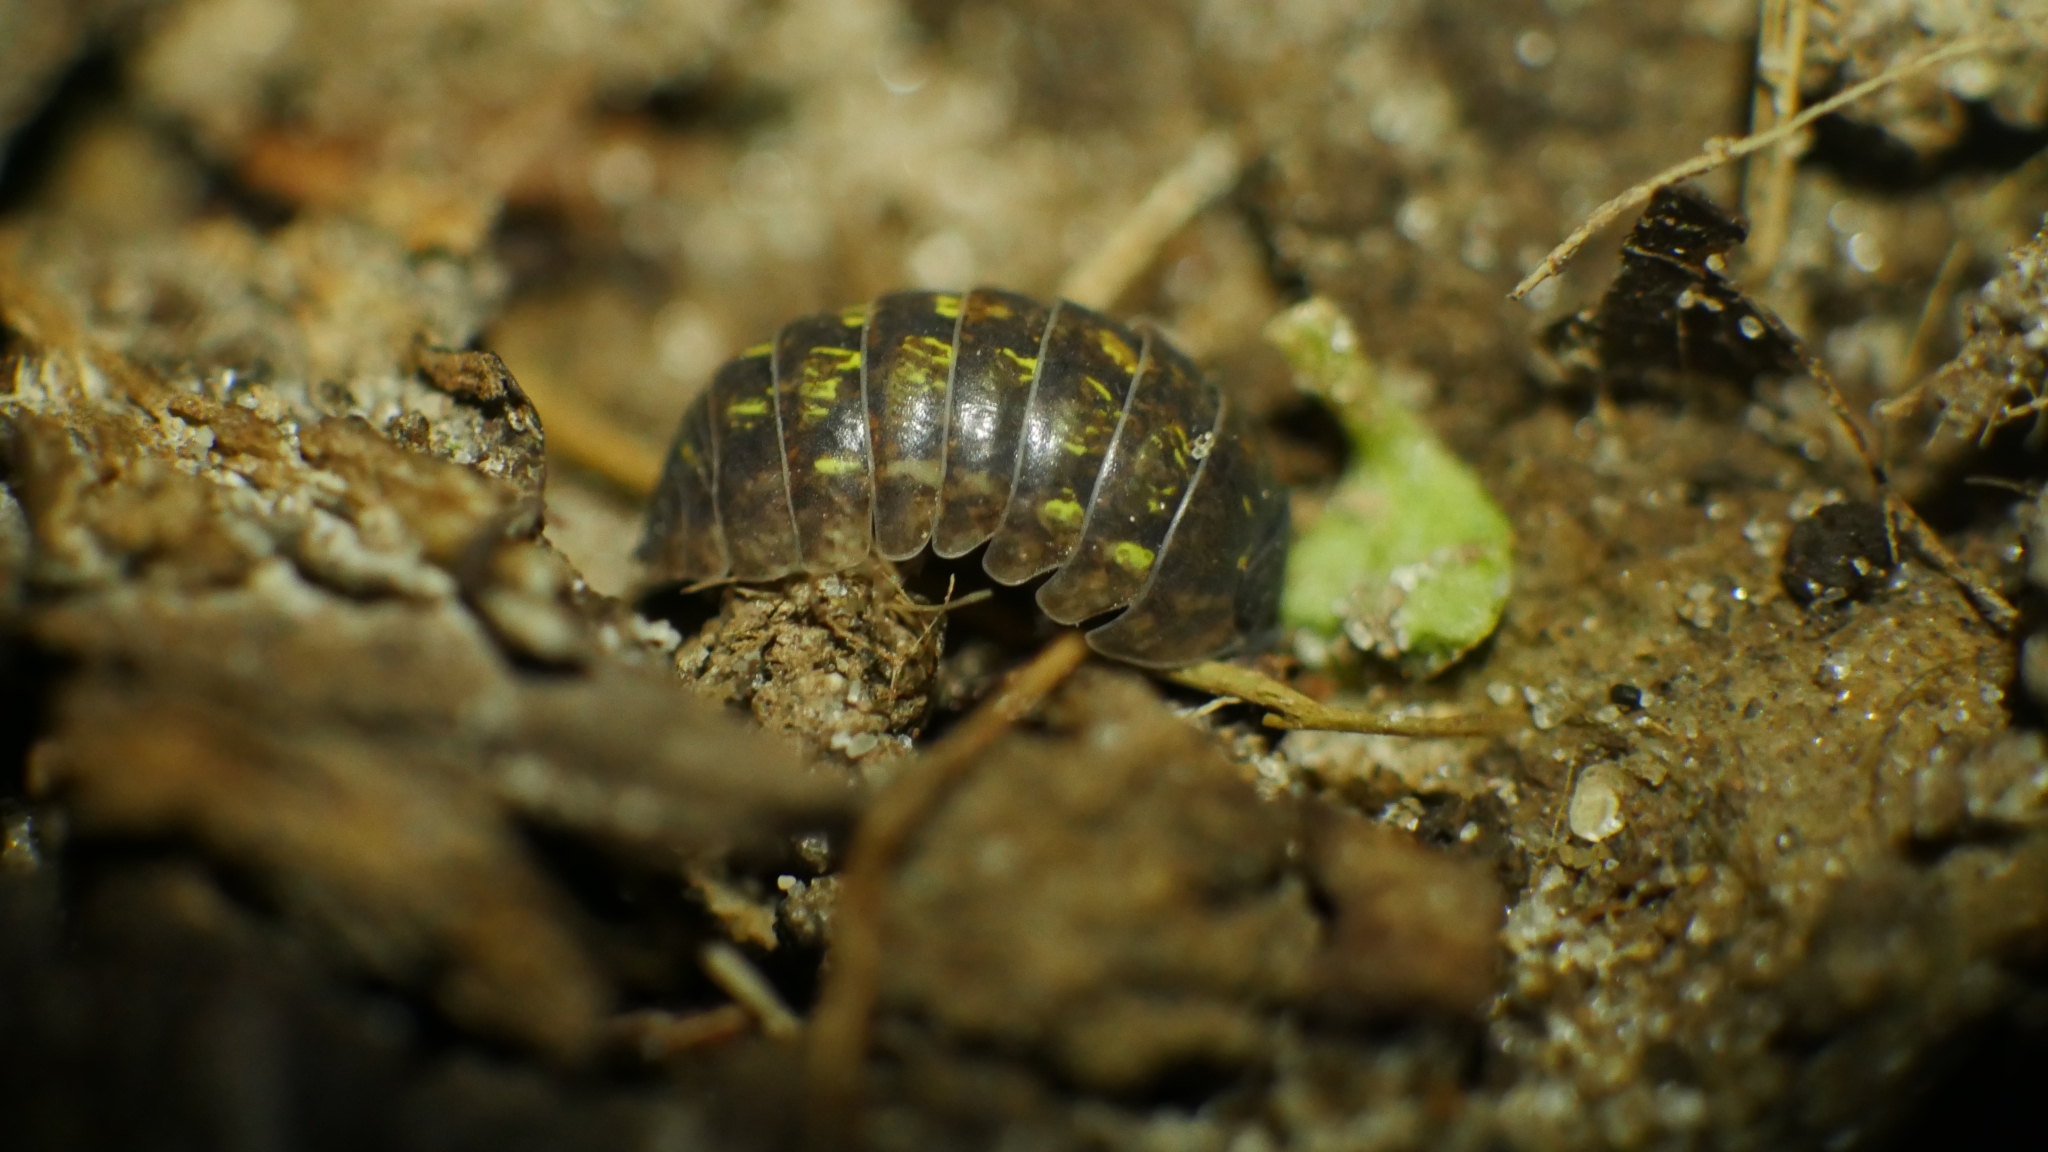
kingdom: Animalia
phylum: Arthropoda
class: Malacostraca
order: Isopoda
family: Armadillidiidae
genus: Armadillidium
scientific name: Armadillidium vulgare
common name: Common pill woodlouse
